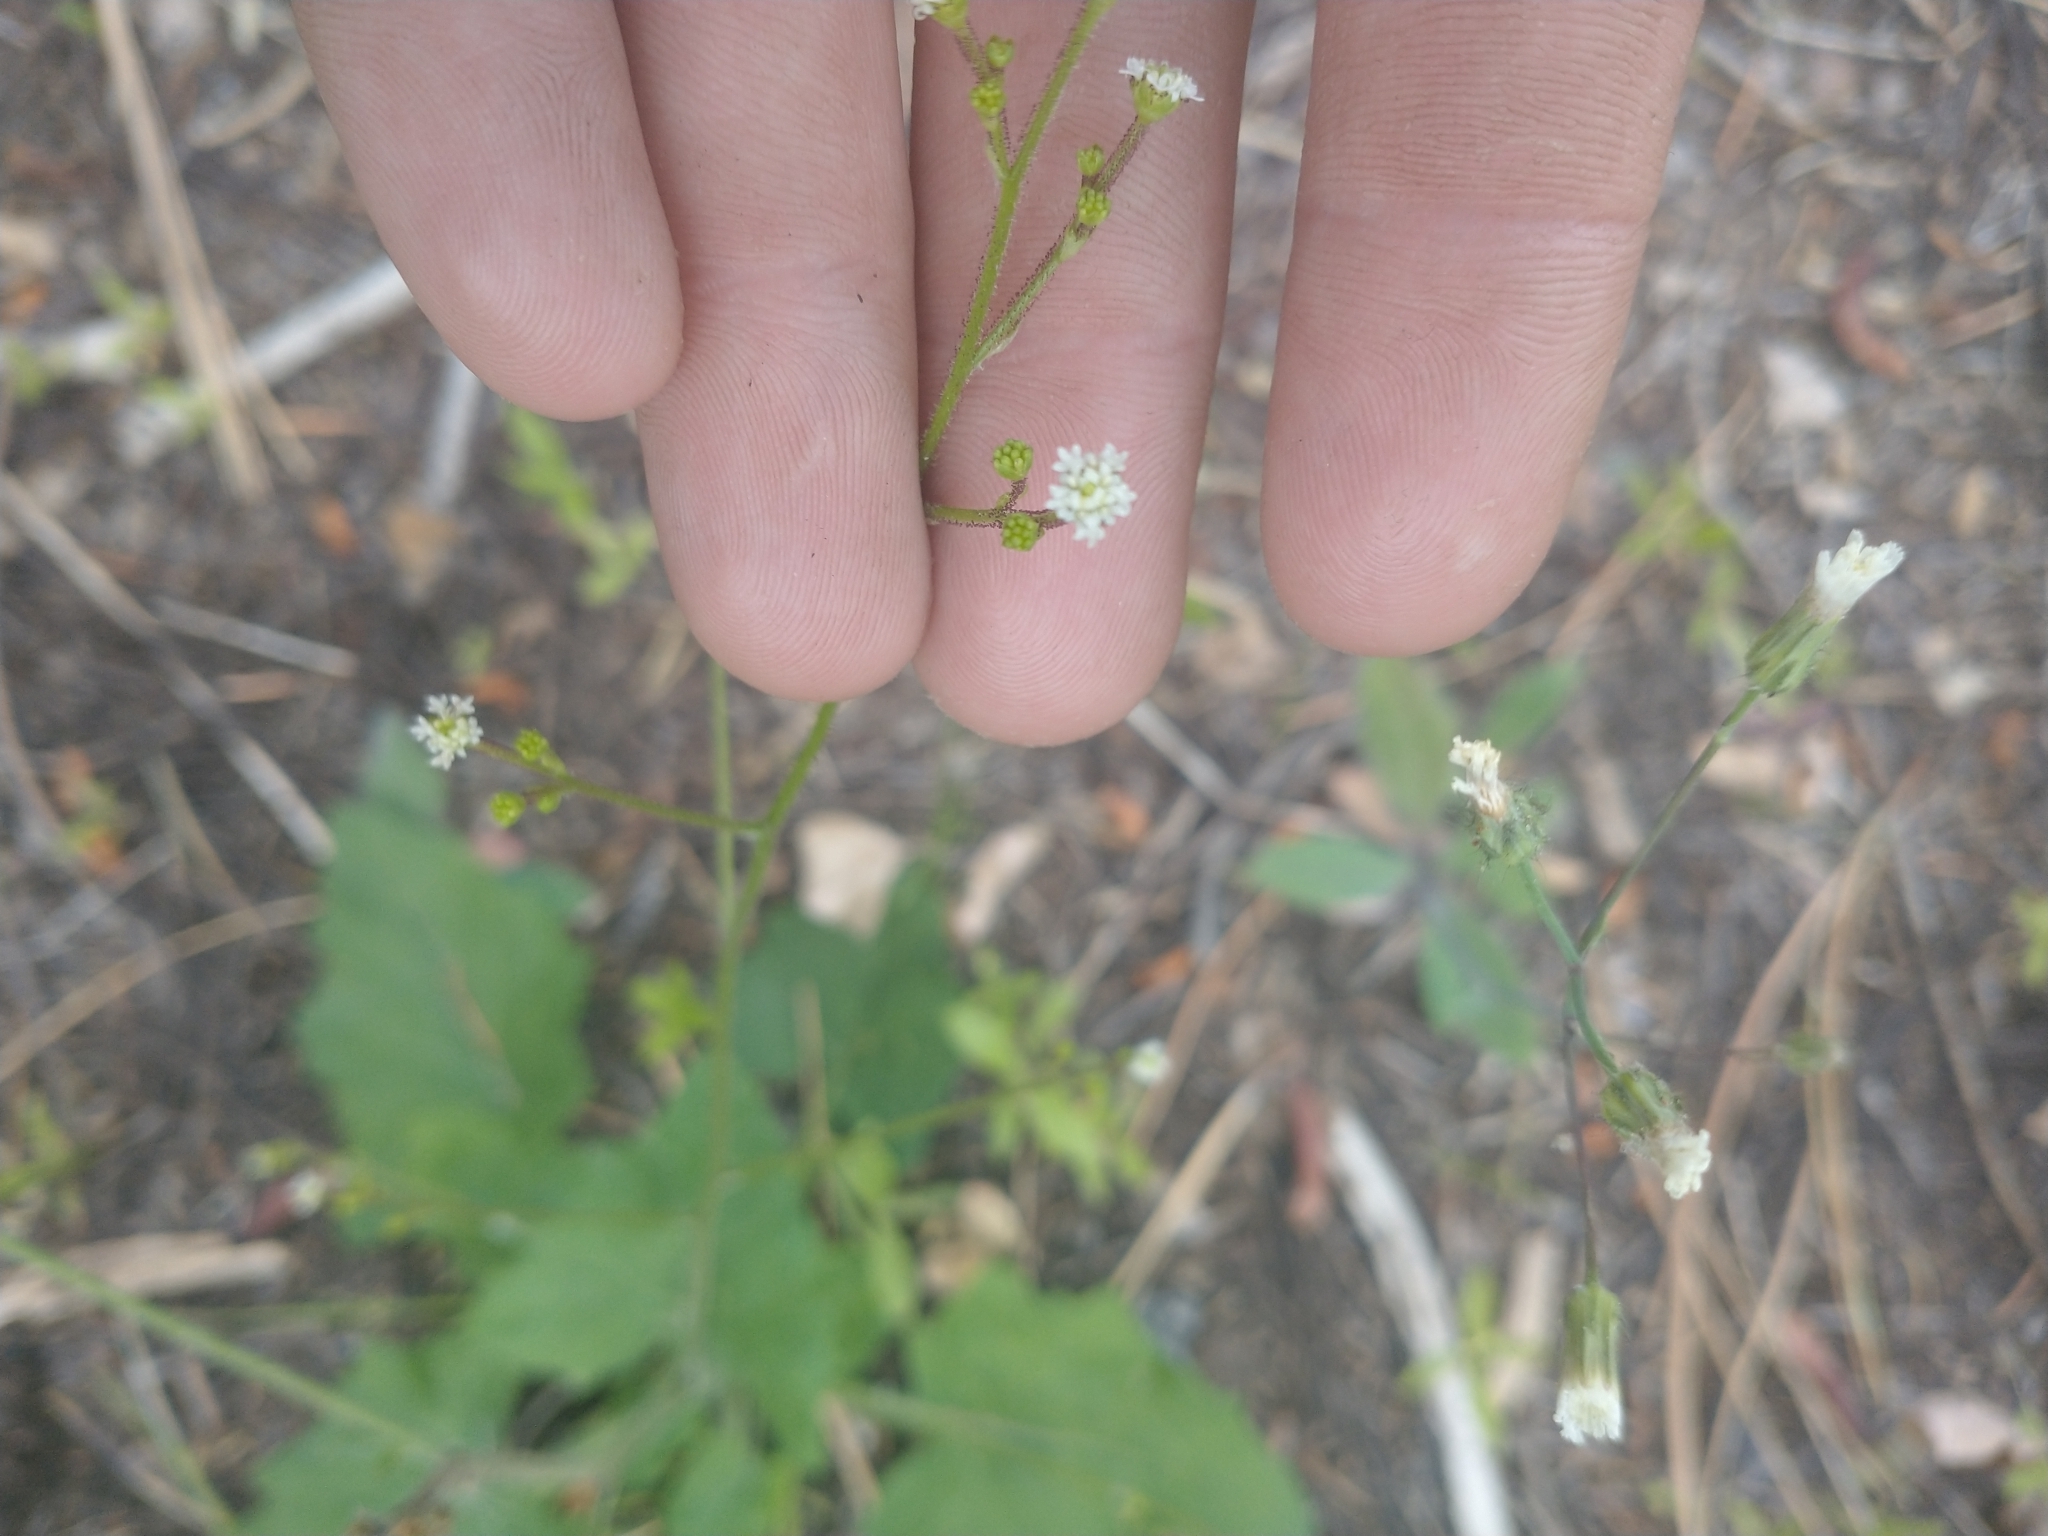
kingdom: Plantae
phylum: Tracheophyta
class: Magnoliopsida
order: Asterales
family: Asteraceae
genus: Adenocaulon
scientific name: Adenocaulon bicolor
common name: Trailplant
